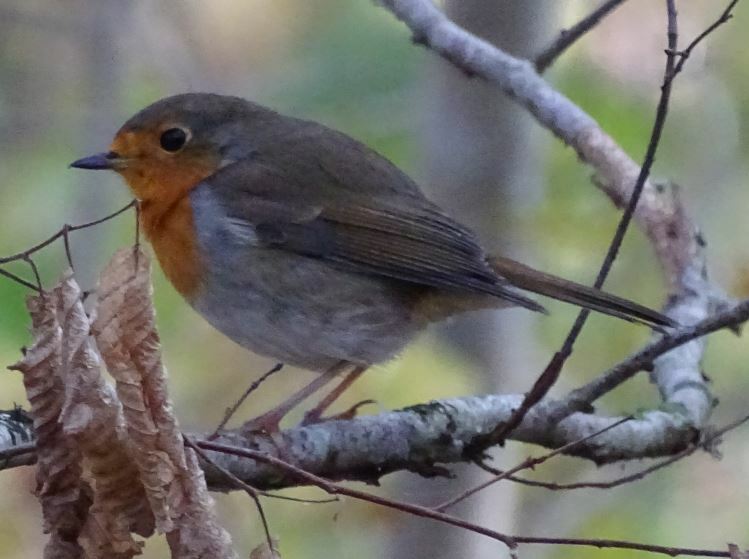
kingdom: Animalia
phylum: Chordata
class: Aves
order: Passeriformes
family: Muscicapidae
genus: Erithacus
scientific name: Erithacus rubecula
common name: European robin
